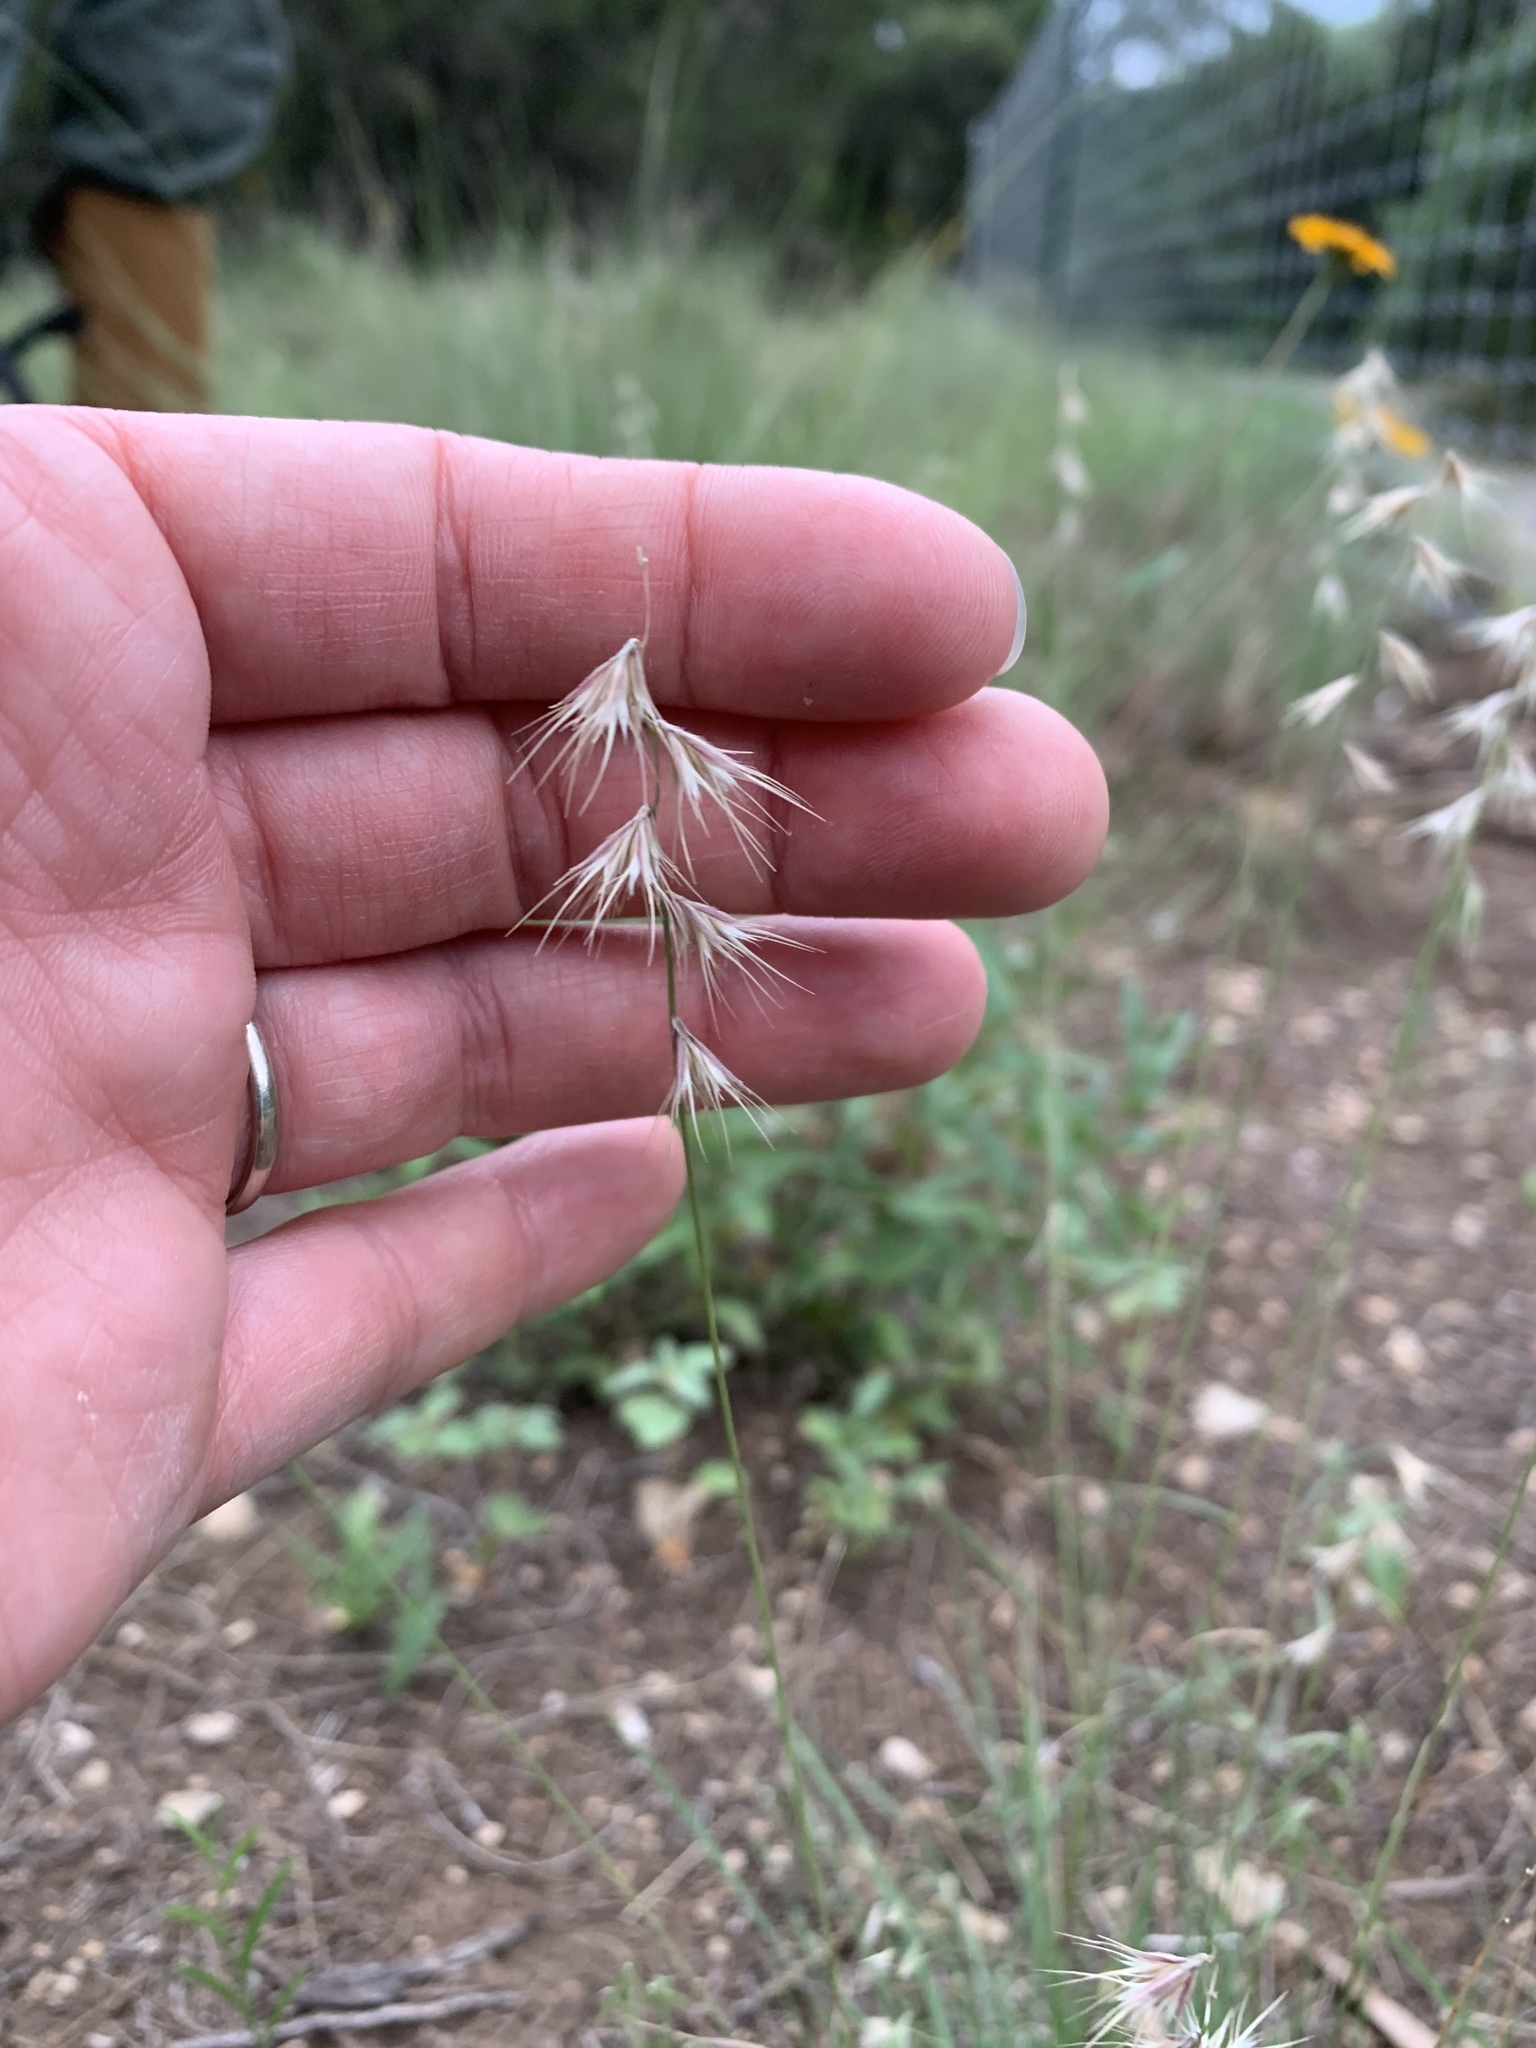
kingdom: Plantae
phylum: Tracheophyta
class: Liliopsida
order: Poales
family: Poaceae
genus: Bouteloua
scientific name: Bouteloua rigidiseta
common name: Texas grama
